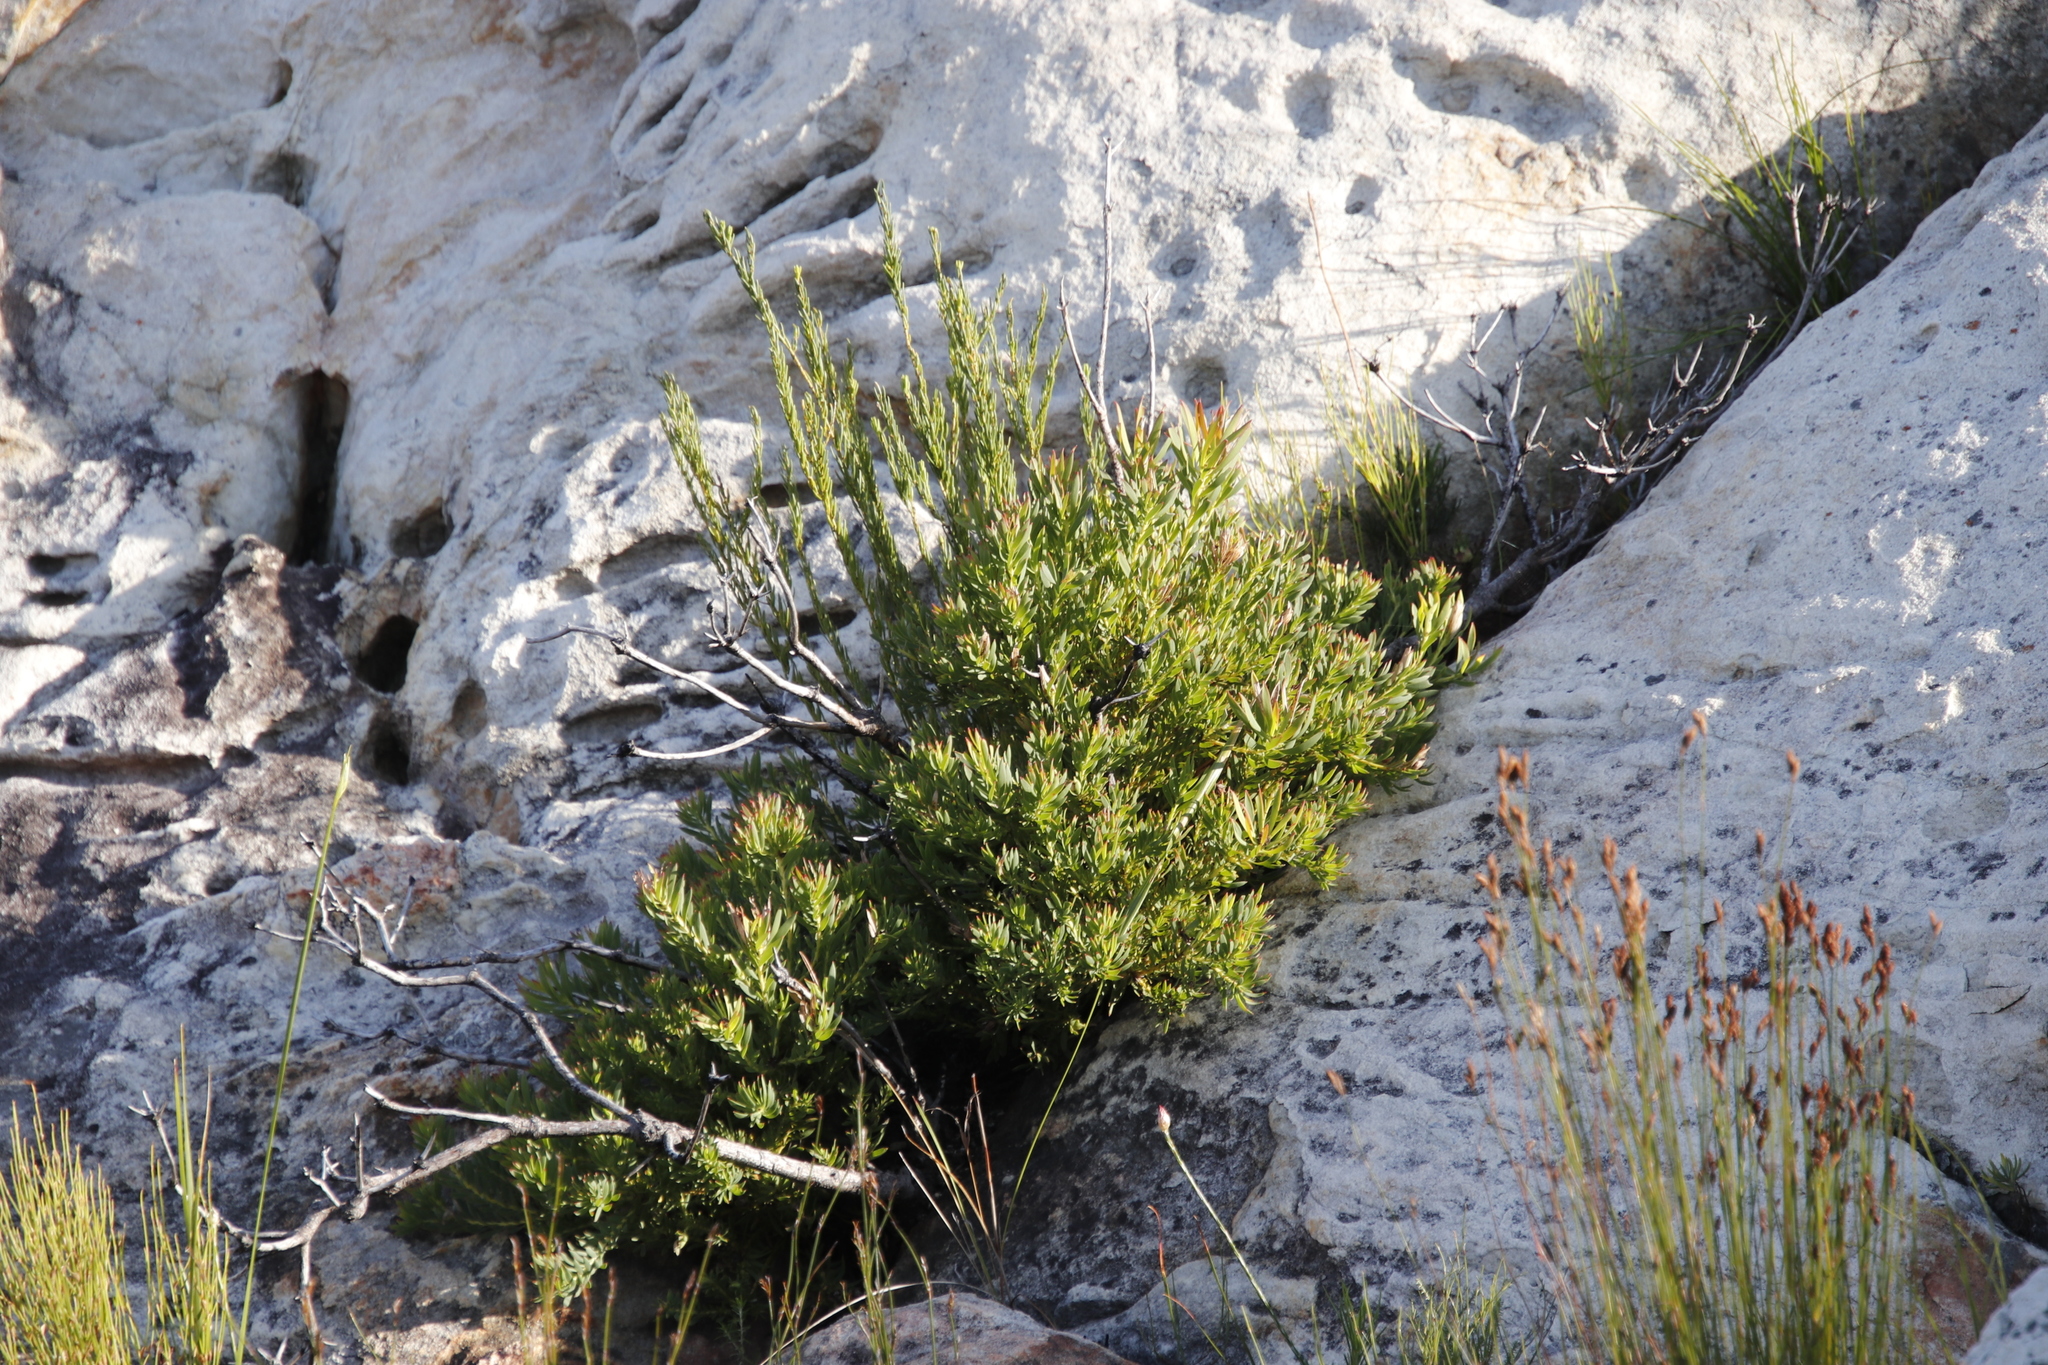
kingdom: Plantae
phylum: Tracheophyta
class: Magnoliopsida
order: Proteales
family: Proteaceae
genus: Leucadendron
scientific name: Leucadendron spissifolium
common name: Spear-leaf conebush
